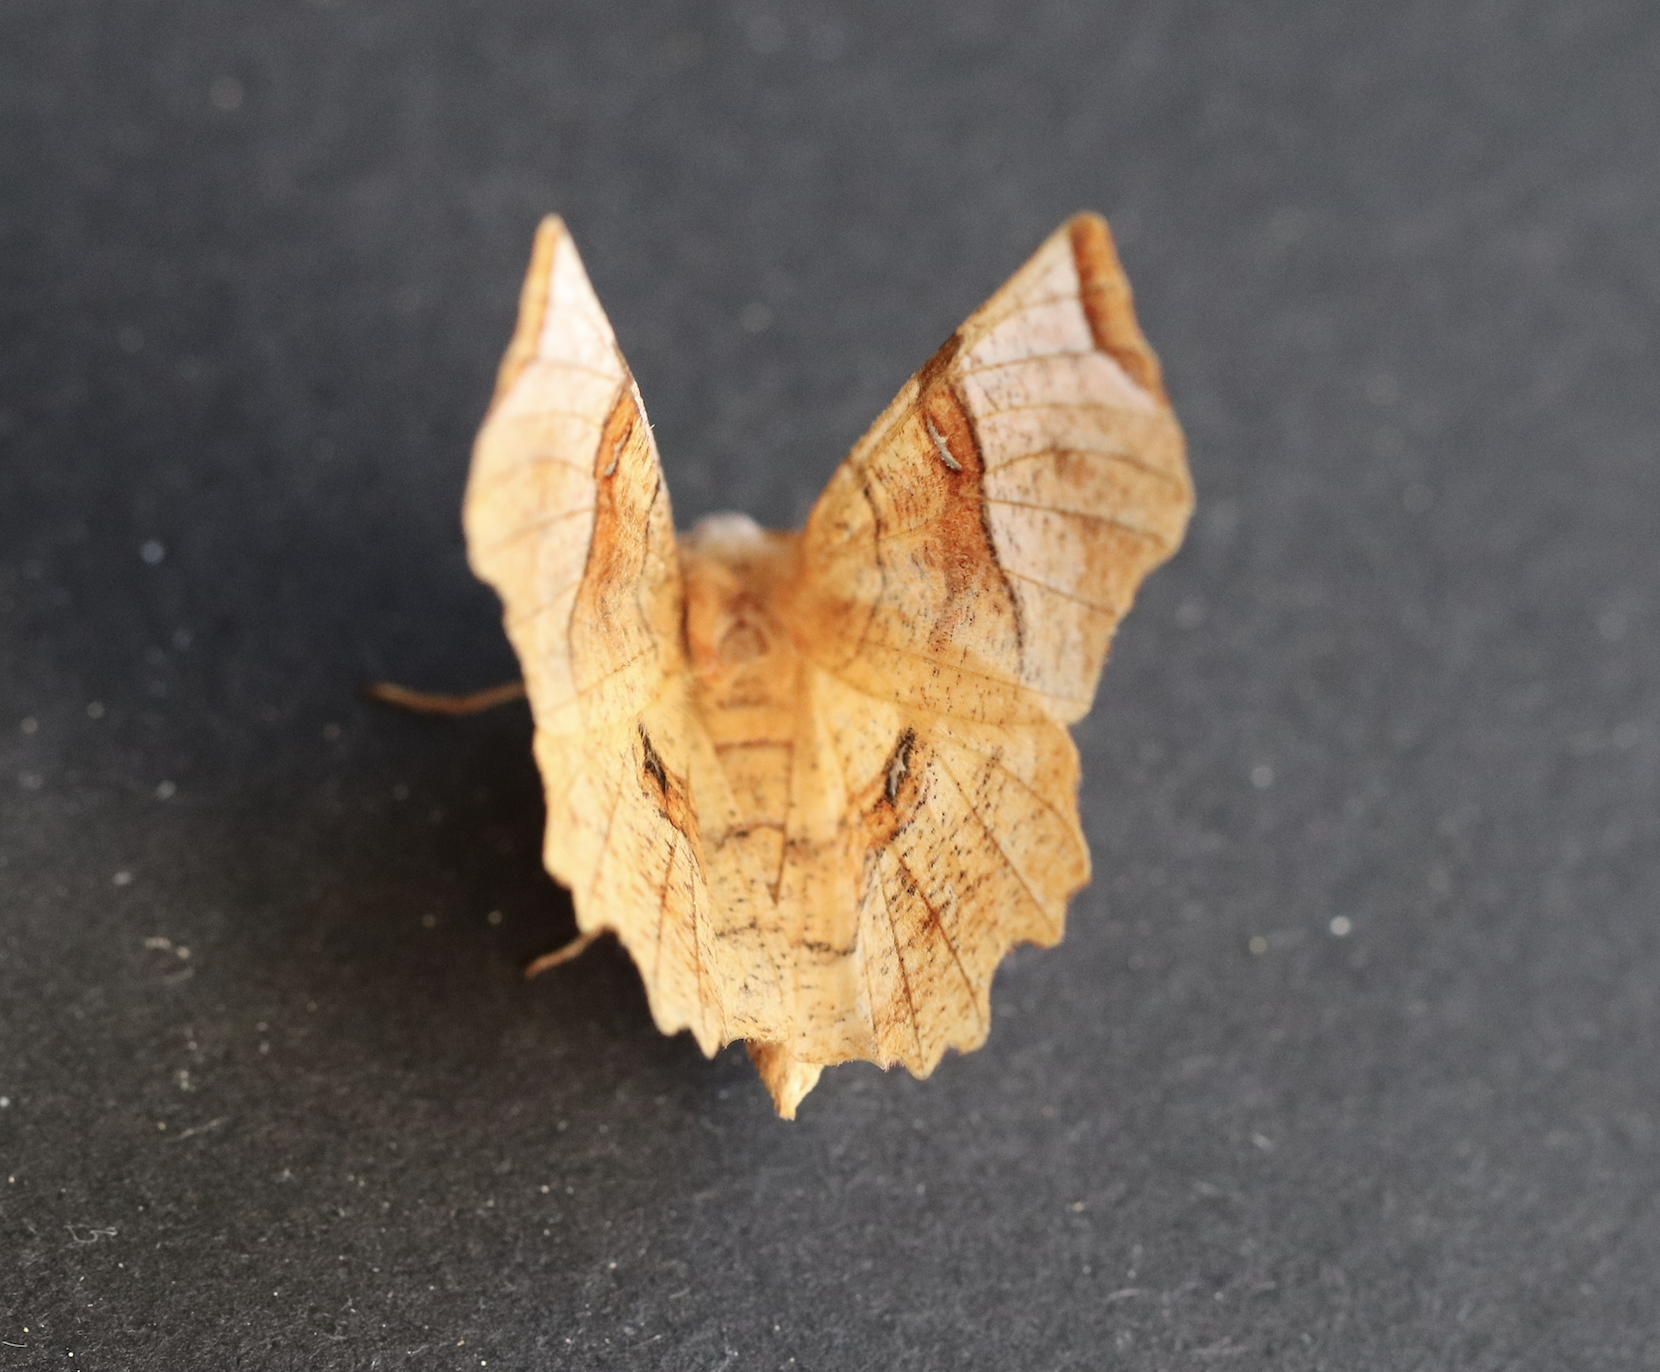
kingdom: Animalia
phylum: Arthropoda
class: Insecta
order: Lepidoptera
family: Geometridae
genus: Selenia
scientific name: Selenia lunularia
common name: Lunar thorn
